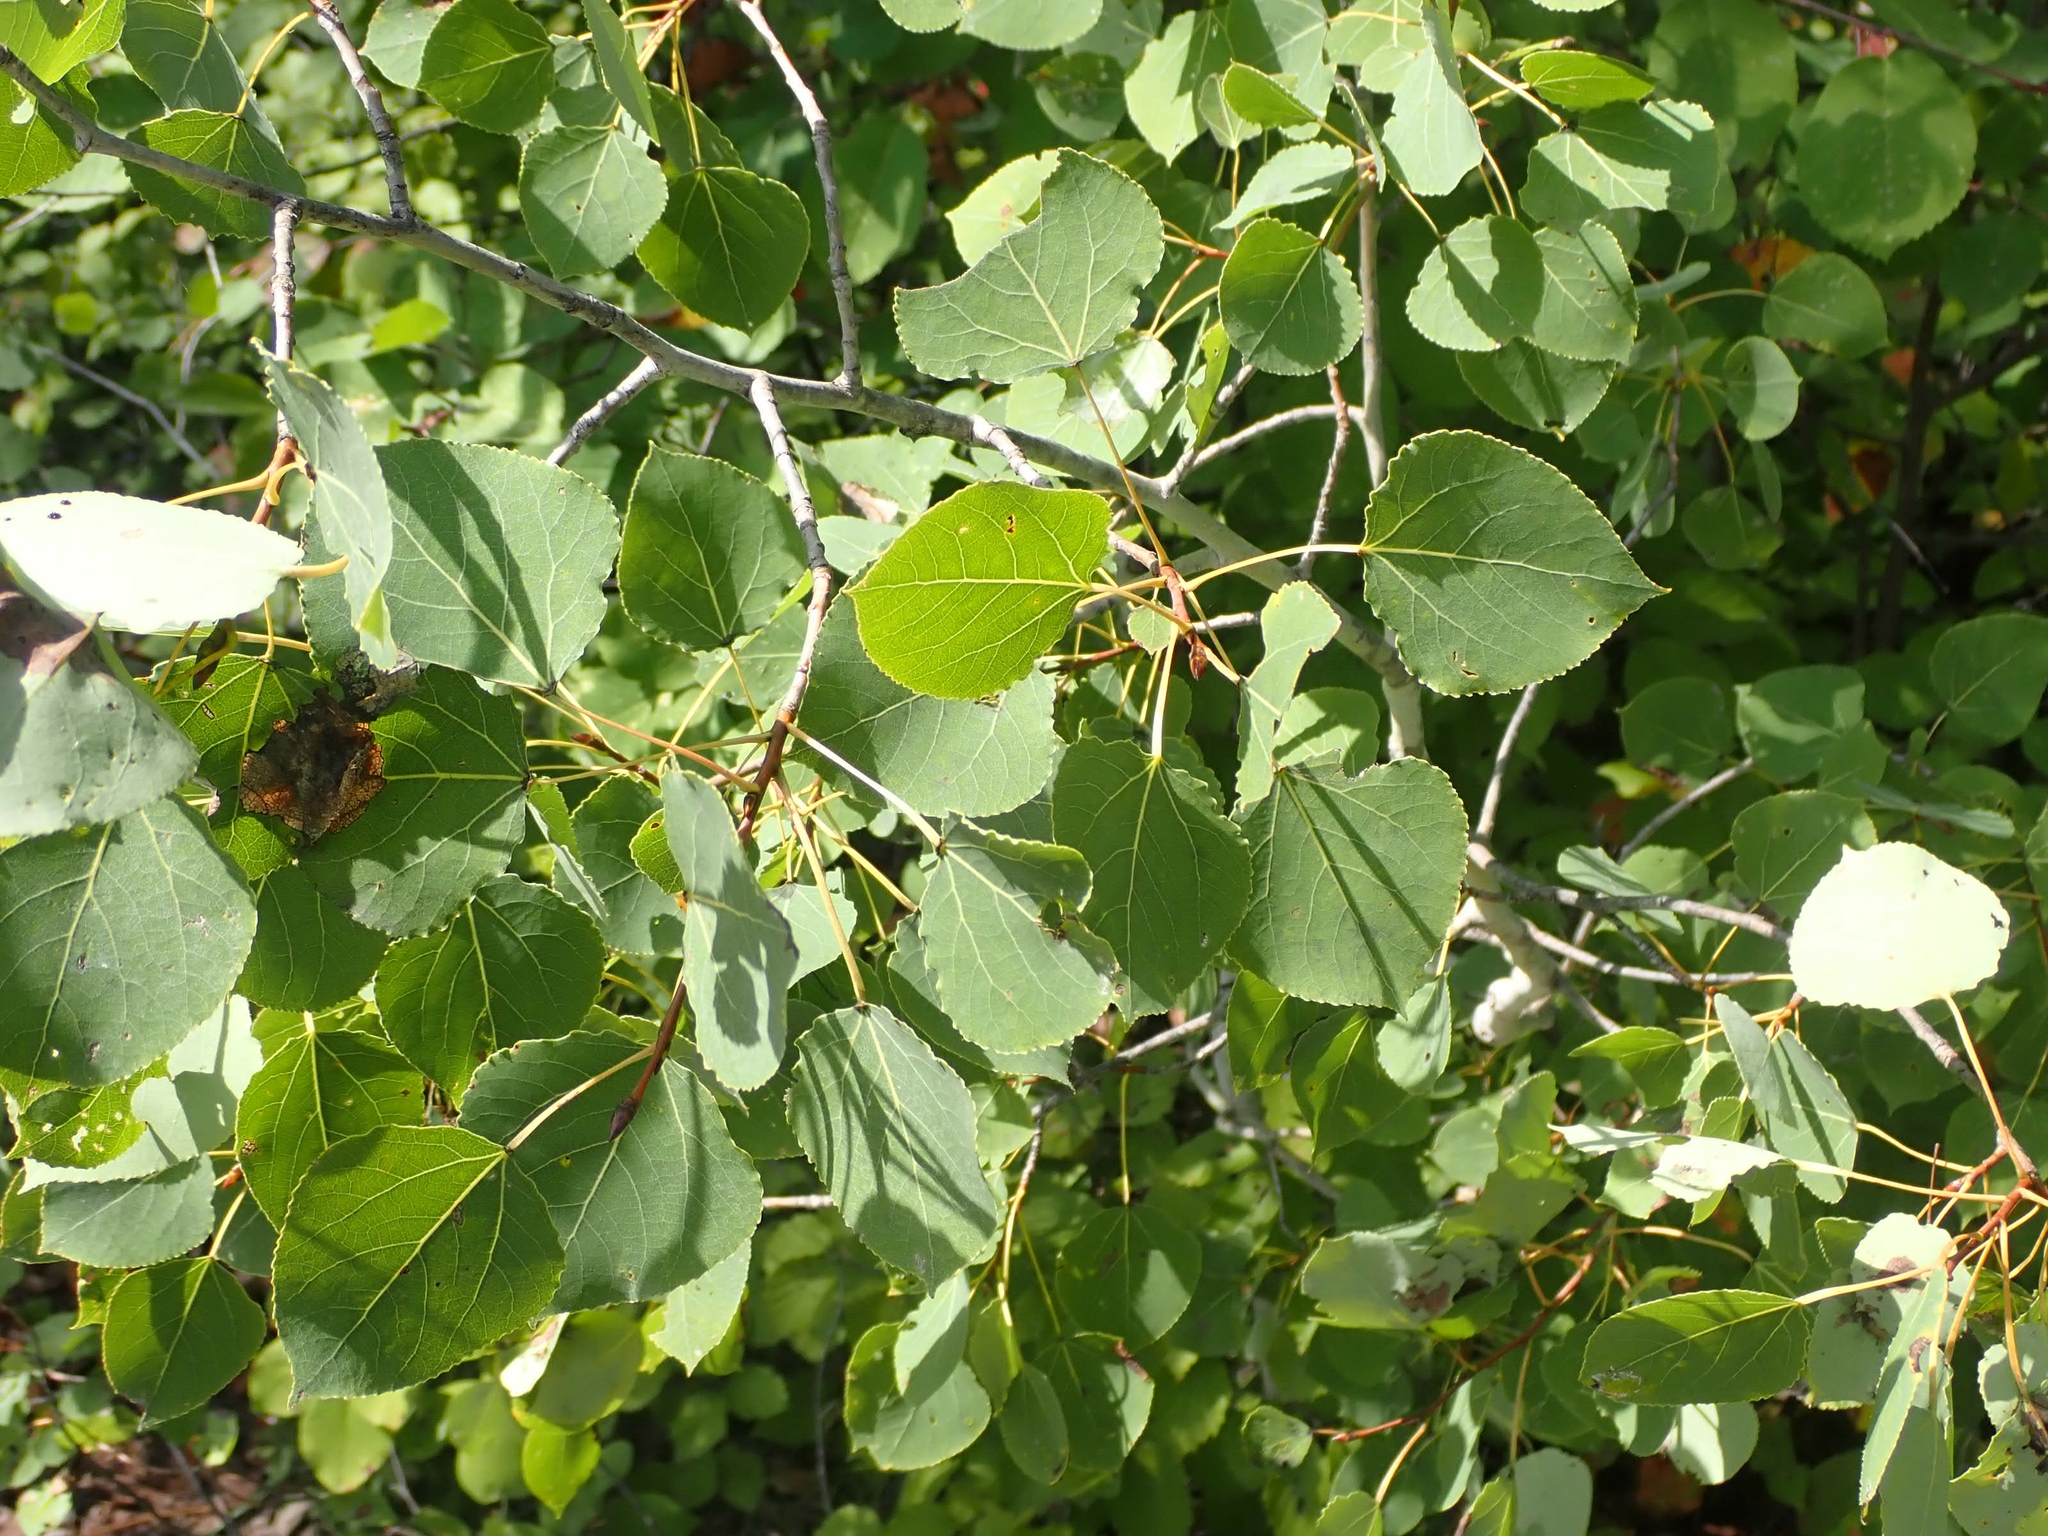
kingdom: Plantae
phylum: Tracheophyta
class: Magnoliopsida
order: Malpighiales
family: Salicaceae
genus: Populus
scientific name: Populus tremuloides
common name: Quaking aspen
